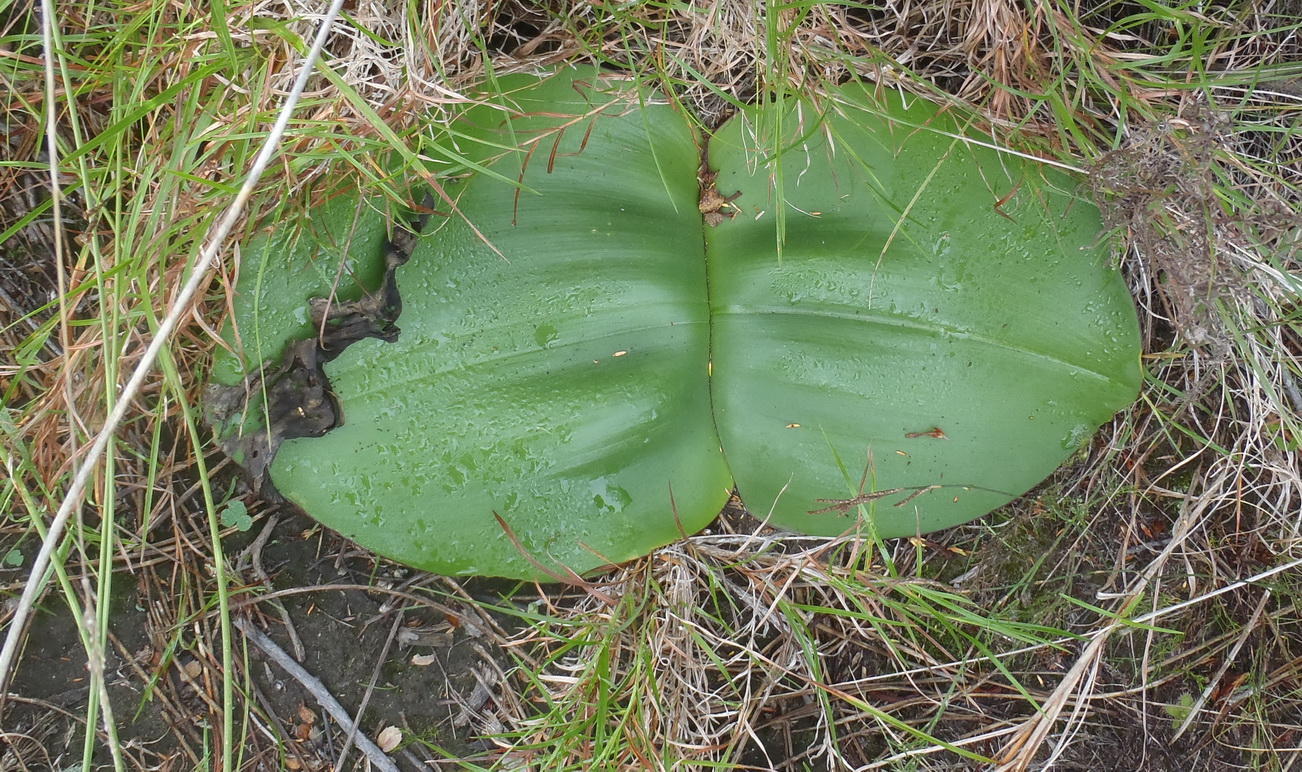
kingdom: Plantae
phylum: Tracheophyta
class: Liliopsida
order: Asparagales
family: Amaryllidaceae
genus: Haemanthus
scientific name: Haemanthus sanguineus
